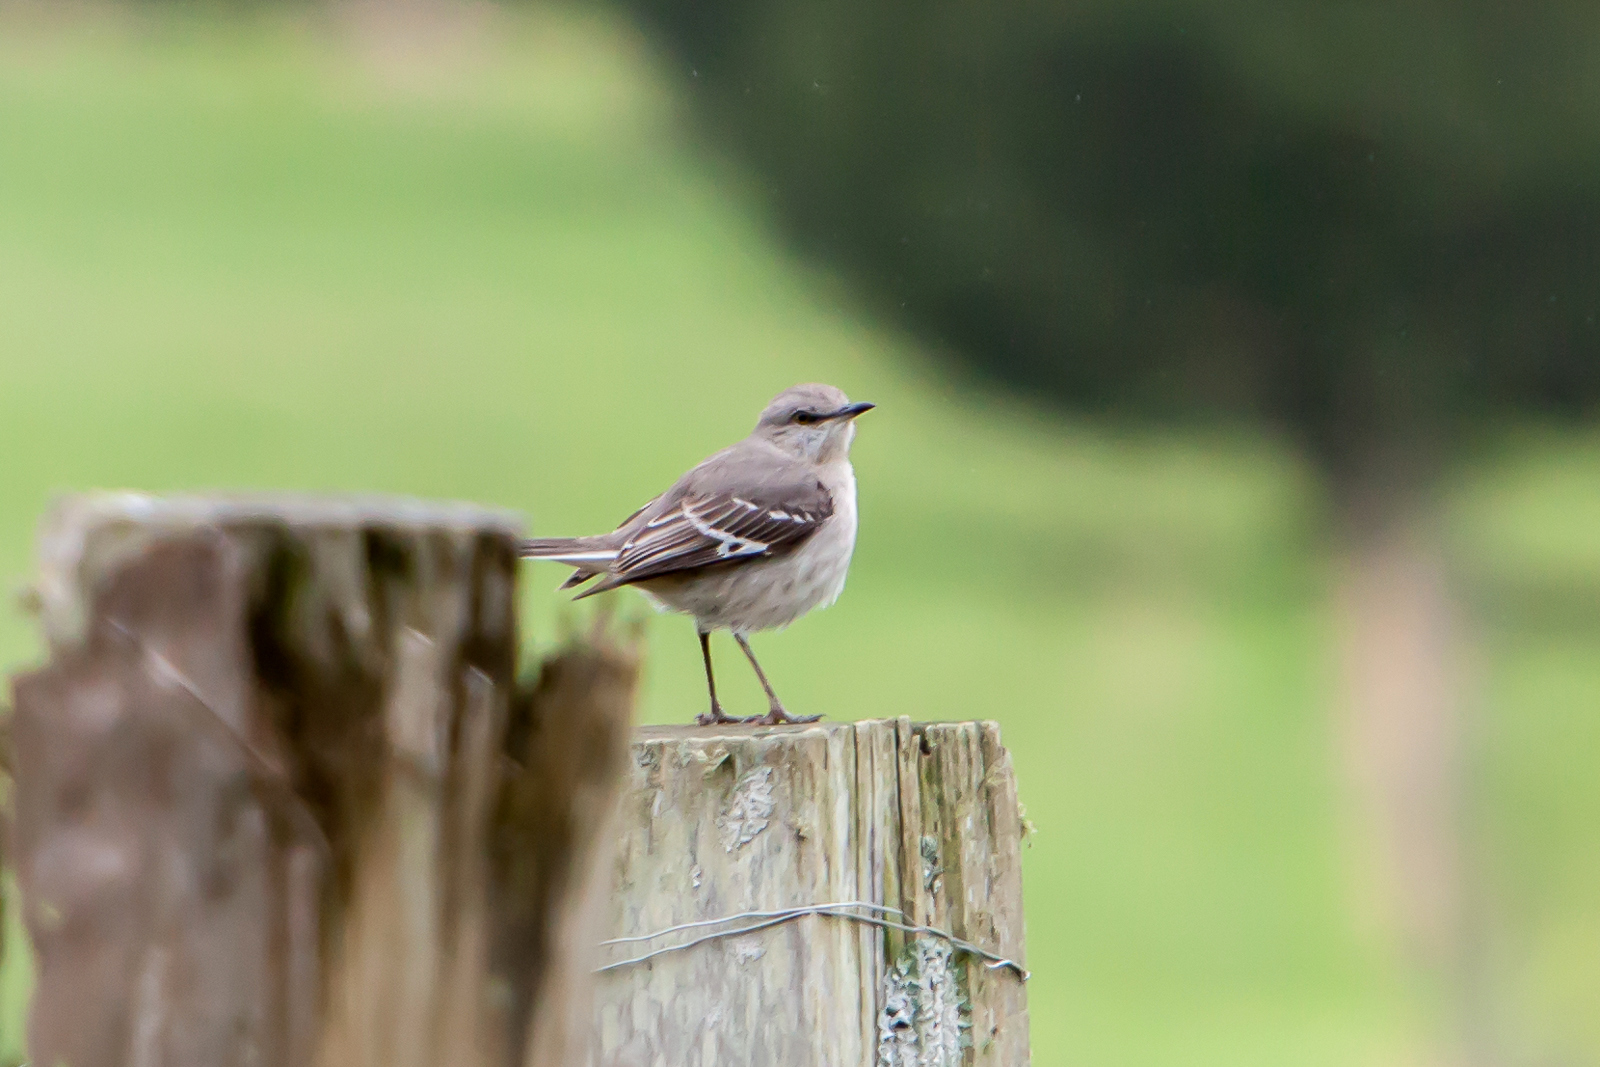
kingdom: Animalia
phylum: Chordata
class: Aves
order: Passeriformes
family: Mimidae
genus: Mimus
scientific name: Mimus polyglottos
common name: Northern mockingbird
